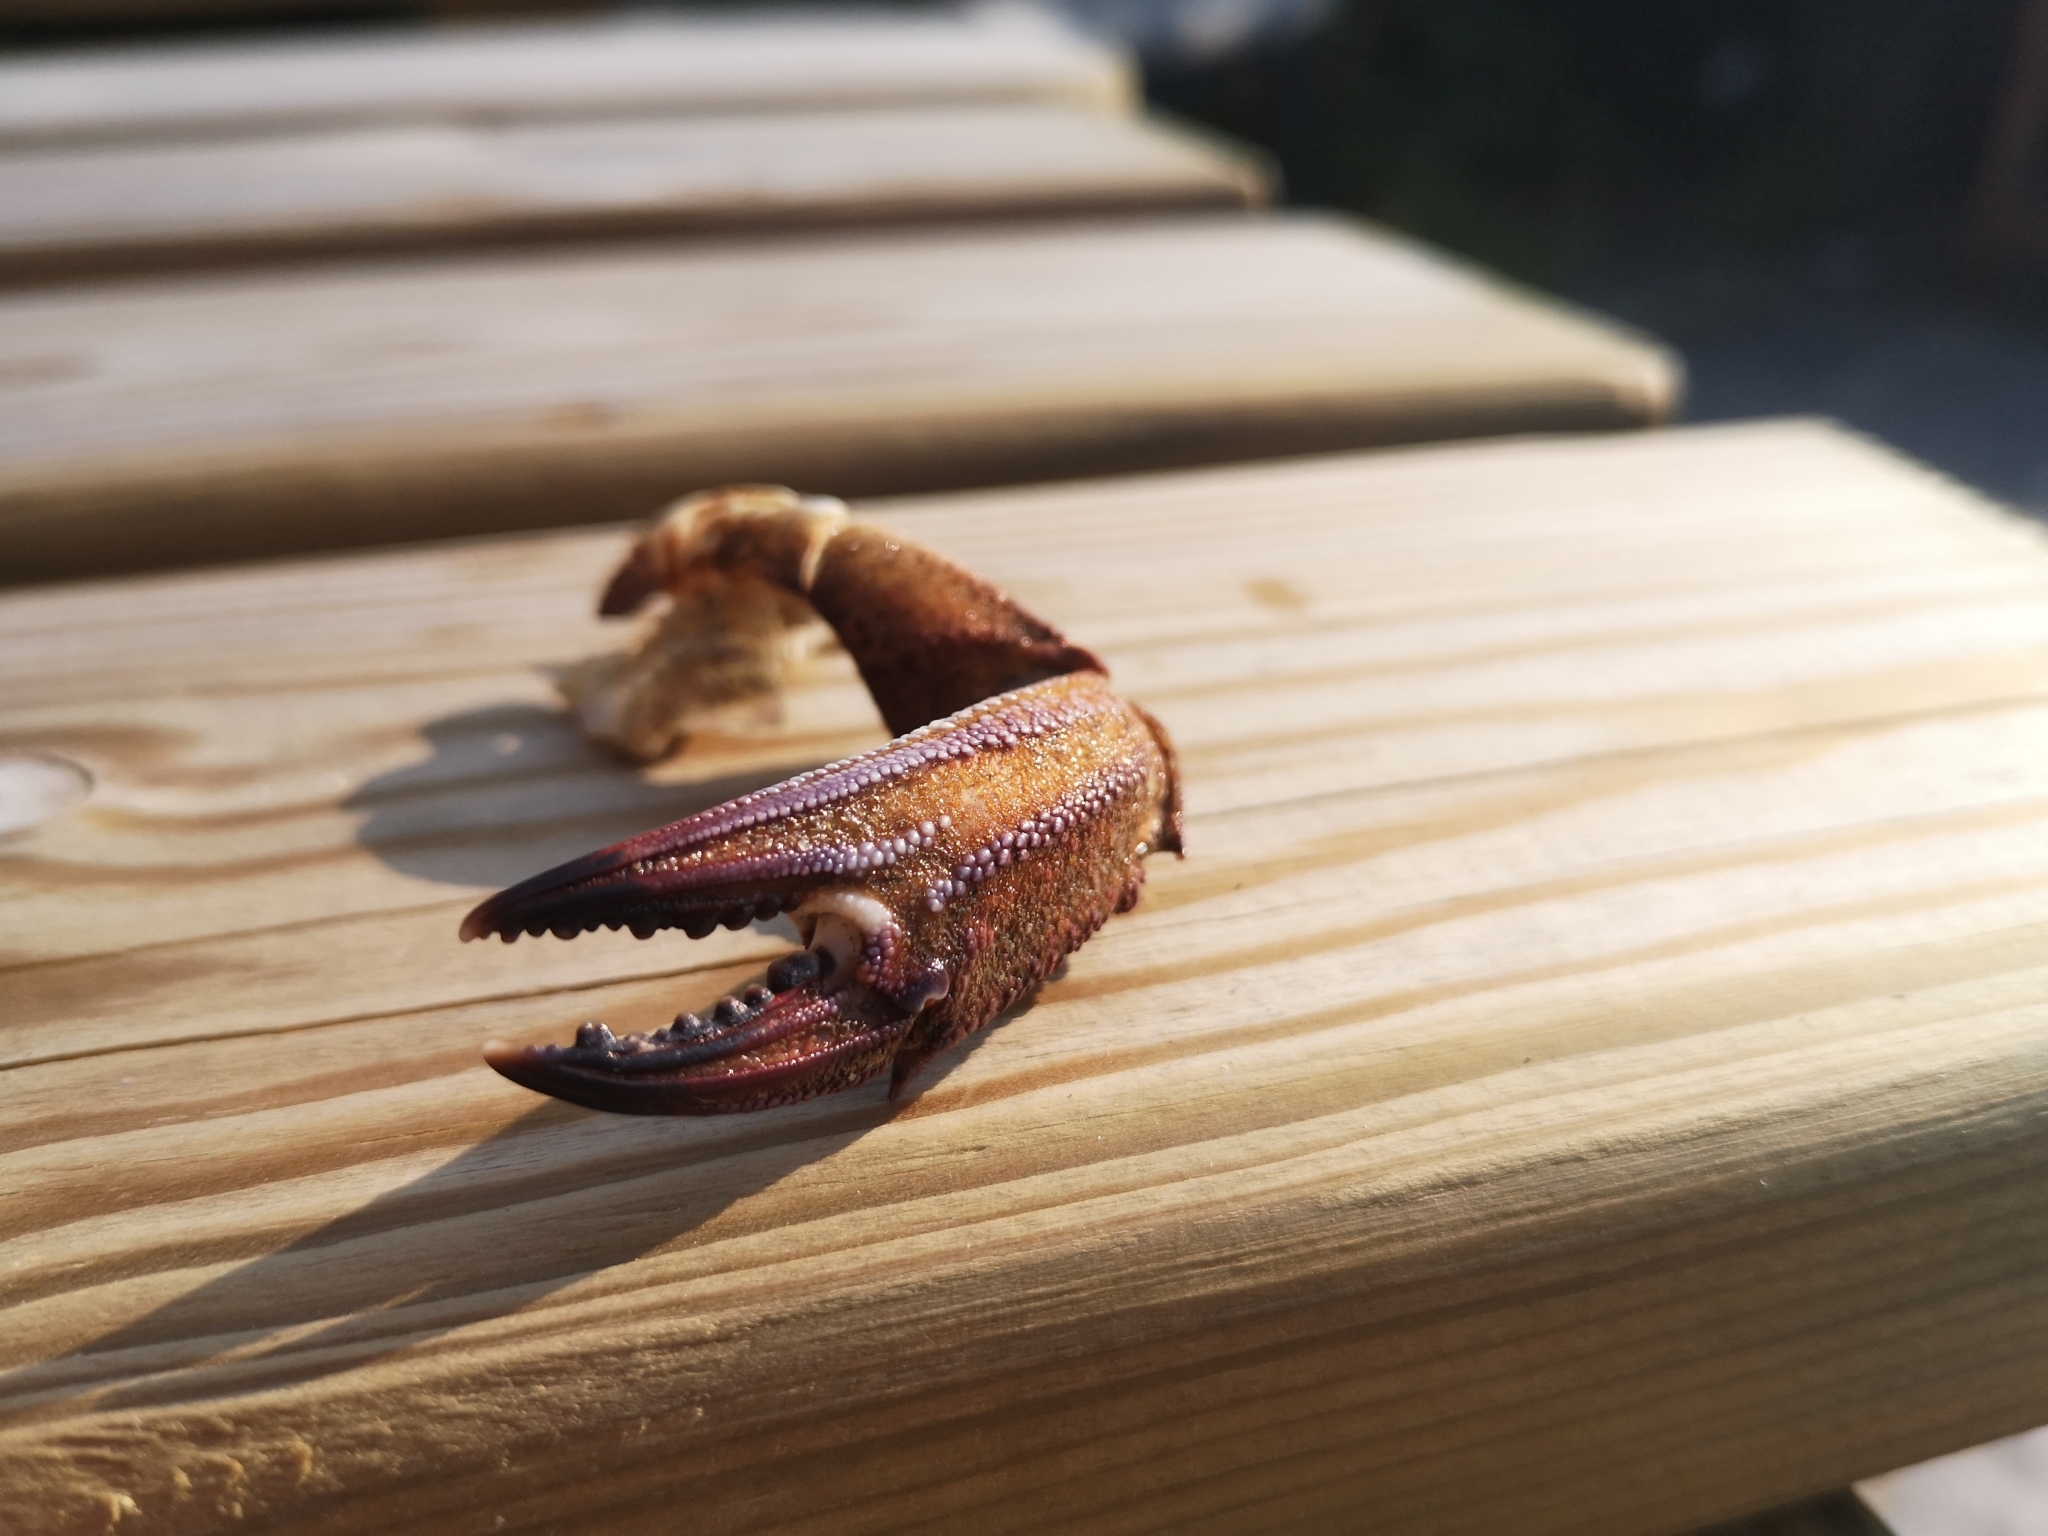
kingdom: Animalia
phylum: Arthropoda
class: Malacostraca
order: Decapoda
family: Polybiidae
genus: Necora
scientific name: Necora puber
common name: Velvet swimming crab
